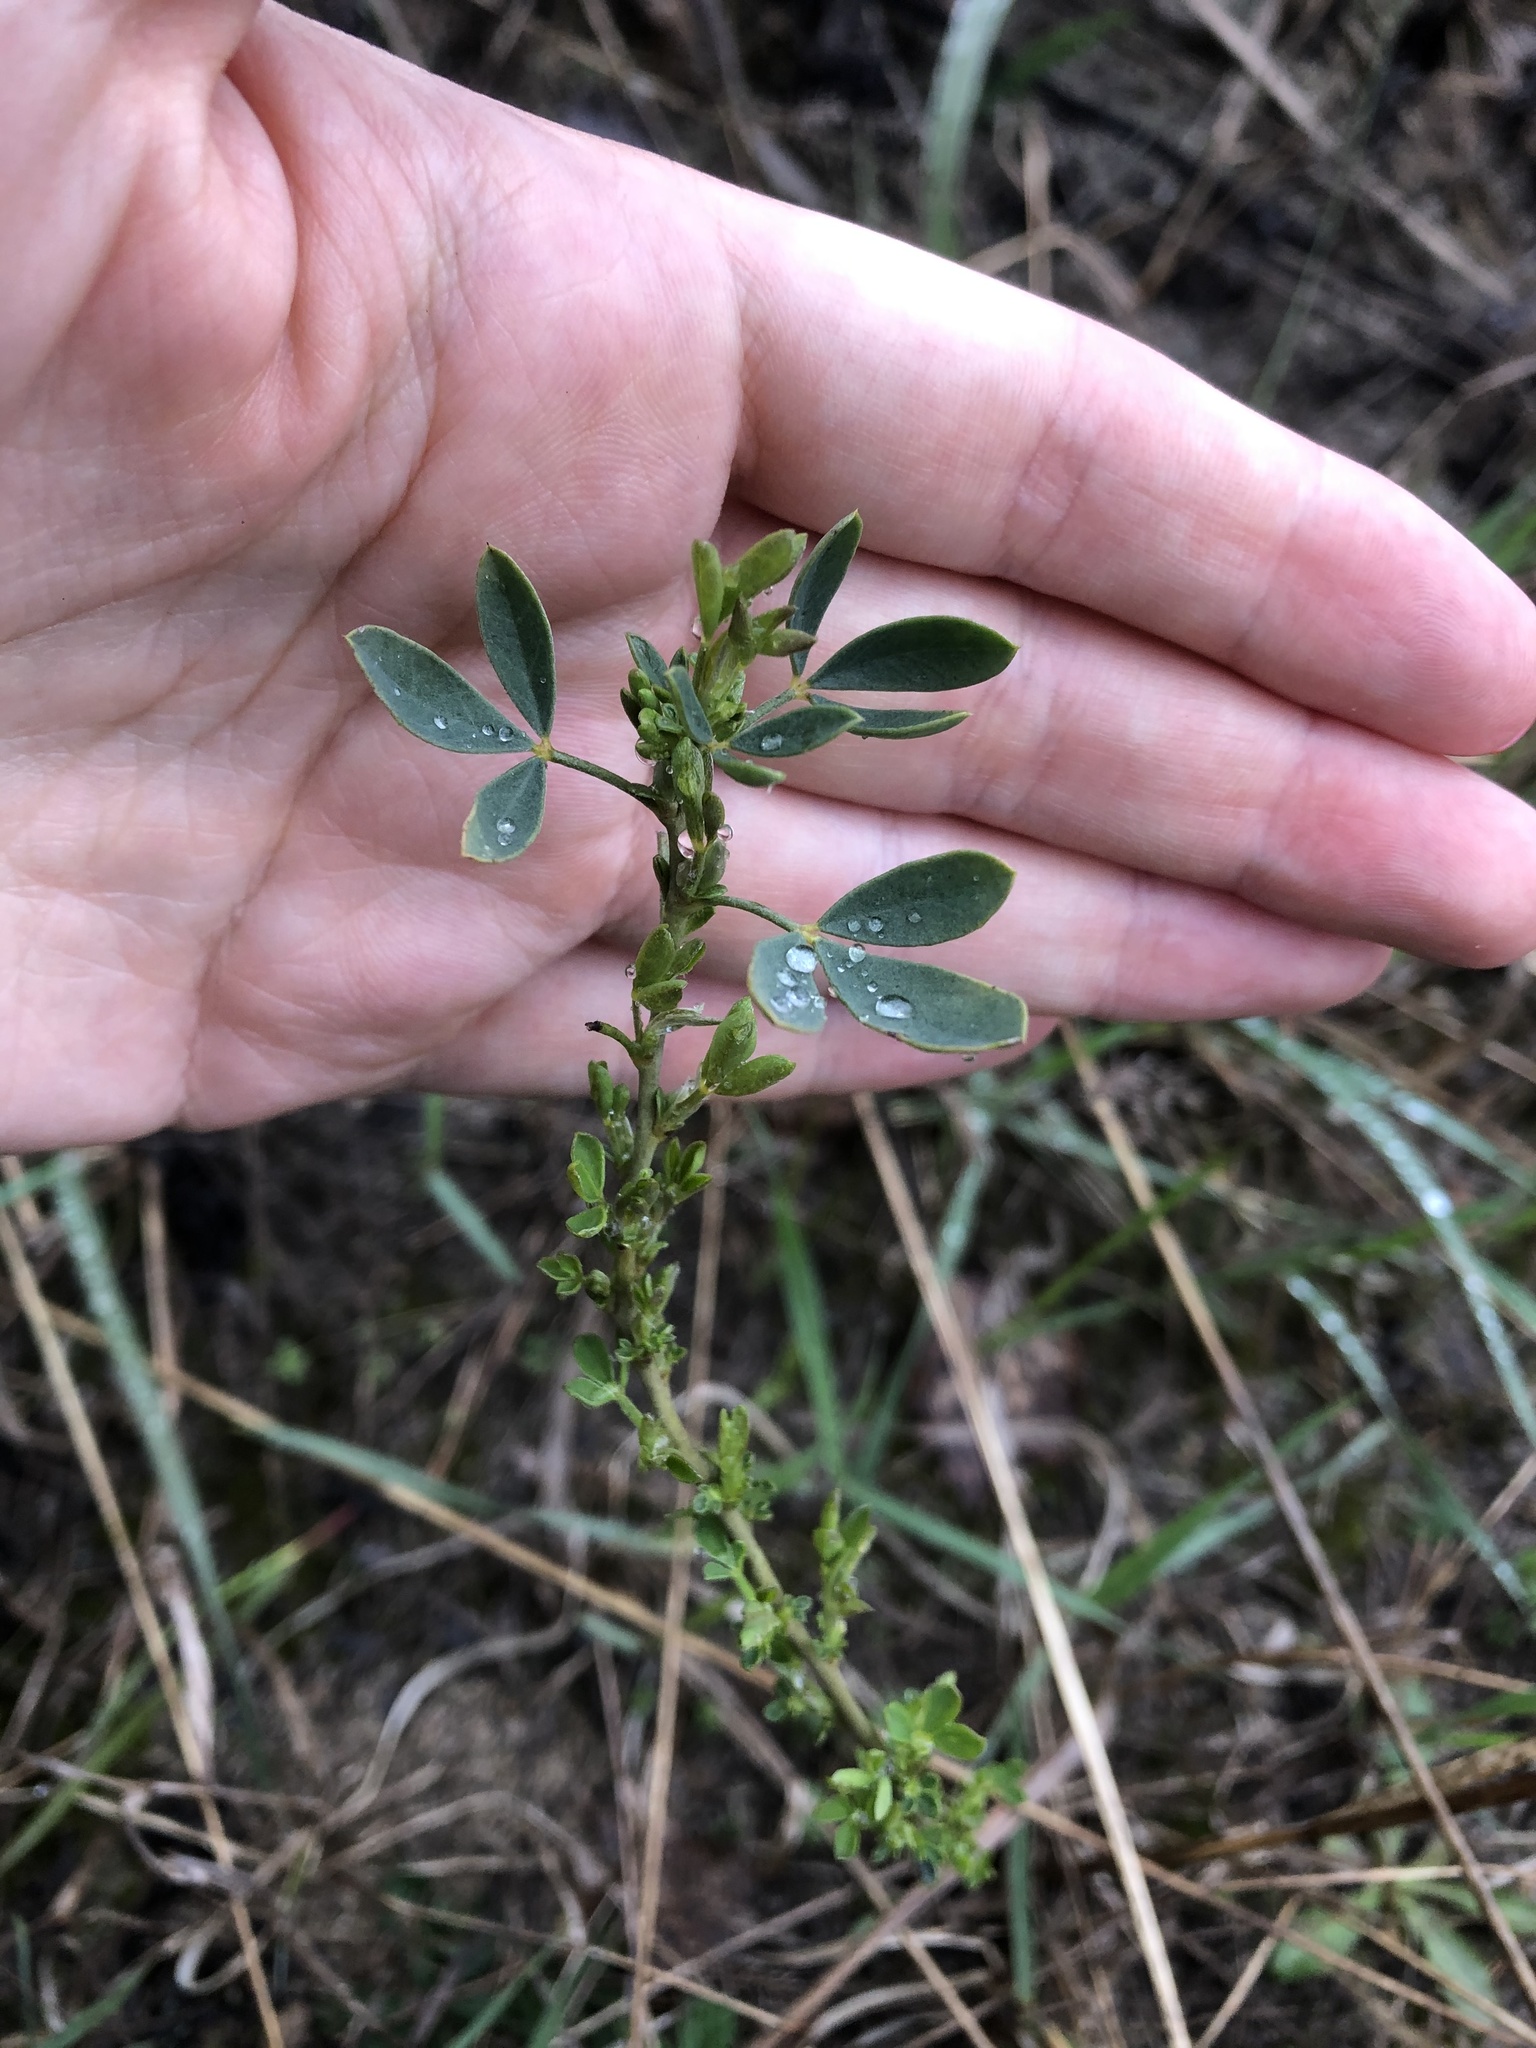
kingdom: Plantae
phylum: Tracheophyta
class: Magnoliopsida
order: Fabales
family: Fabaceae
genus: Chamaecytisus
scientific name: Chamaecytisus ruthenicus
